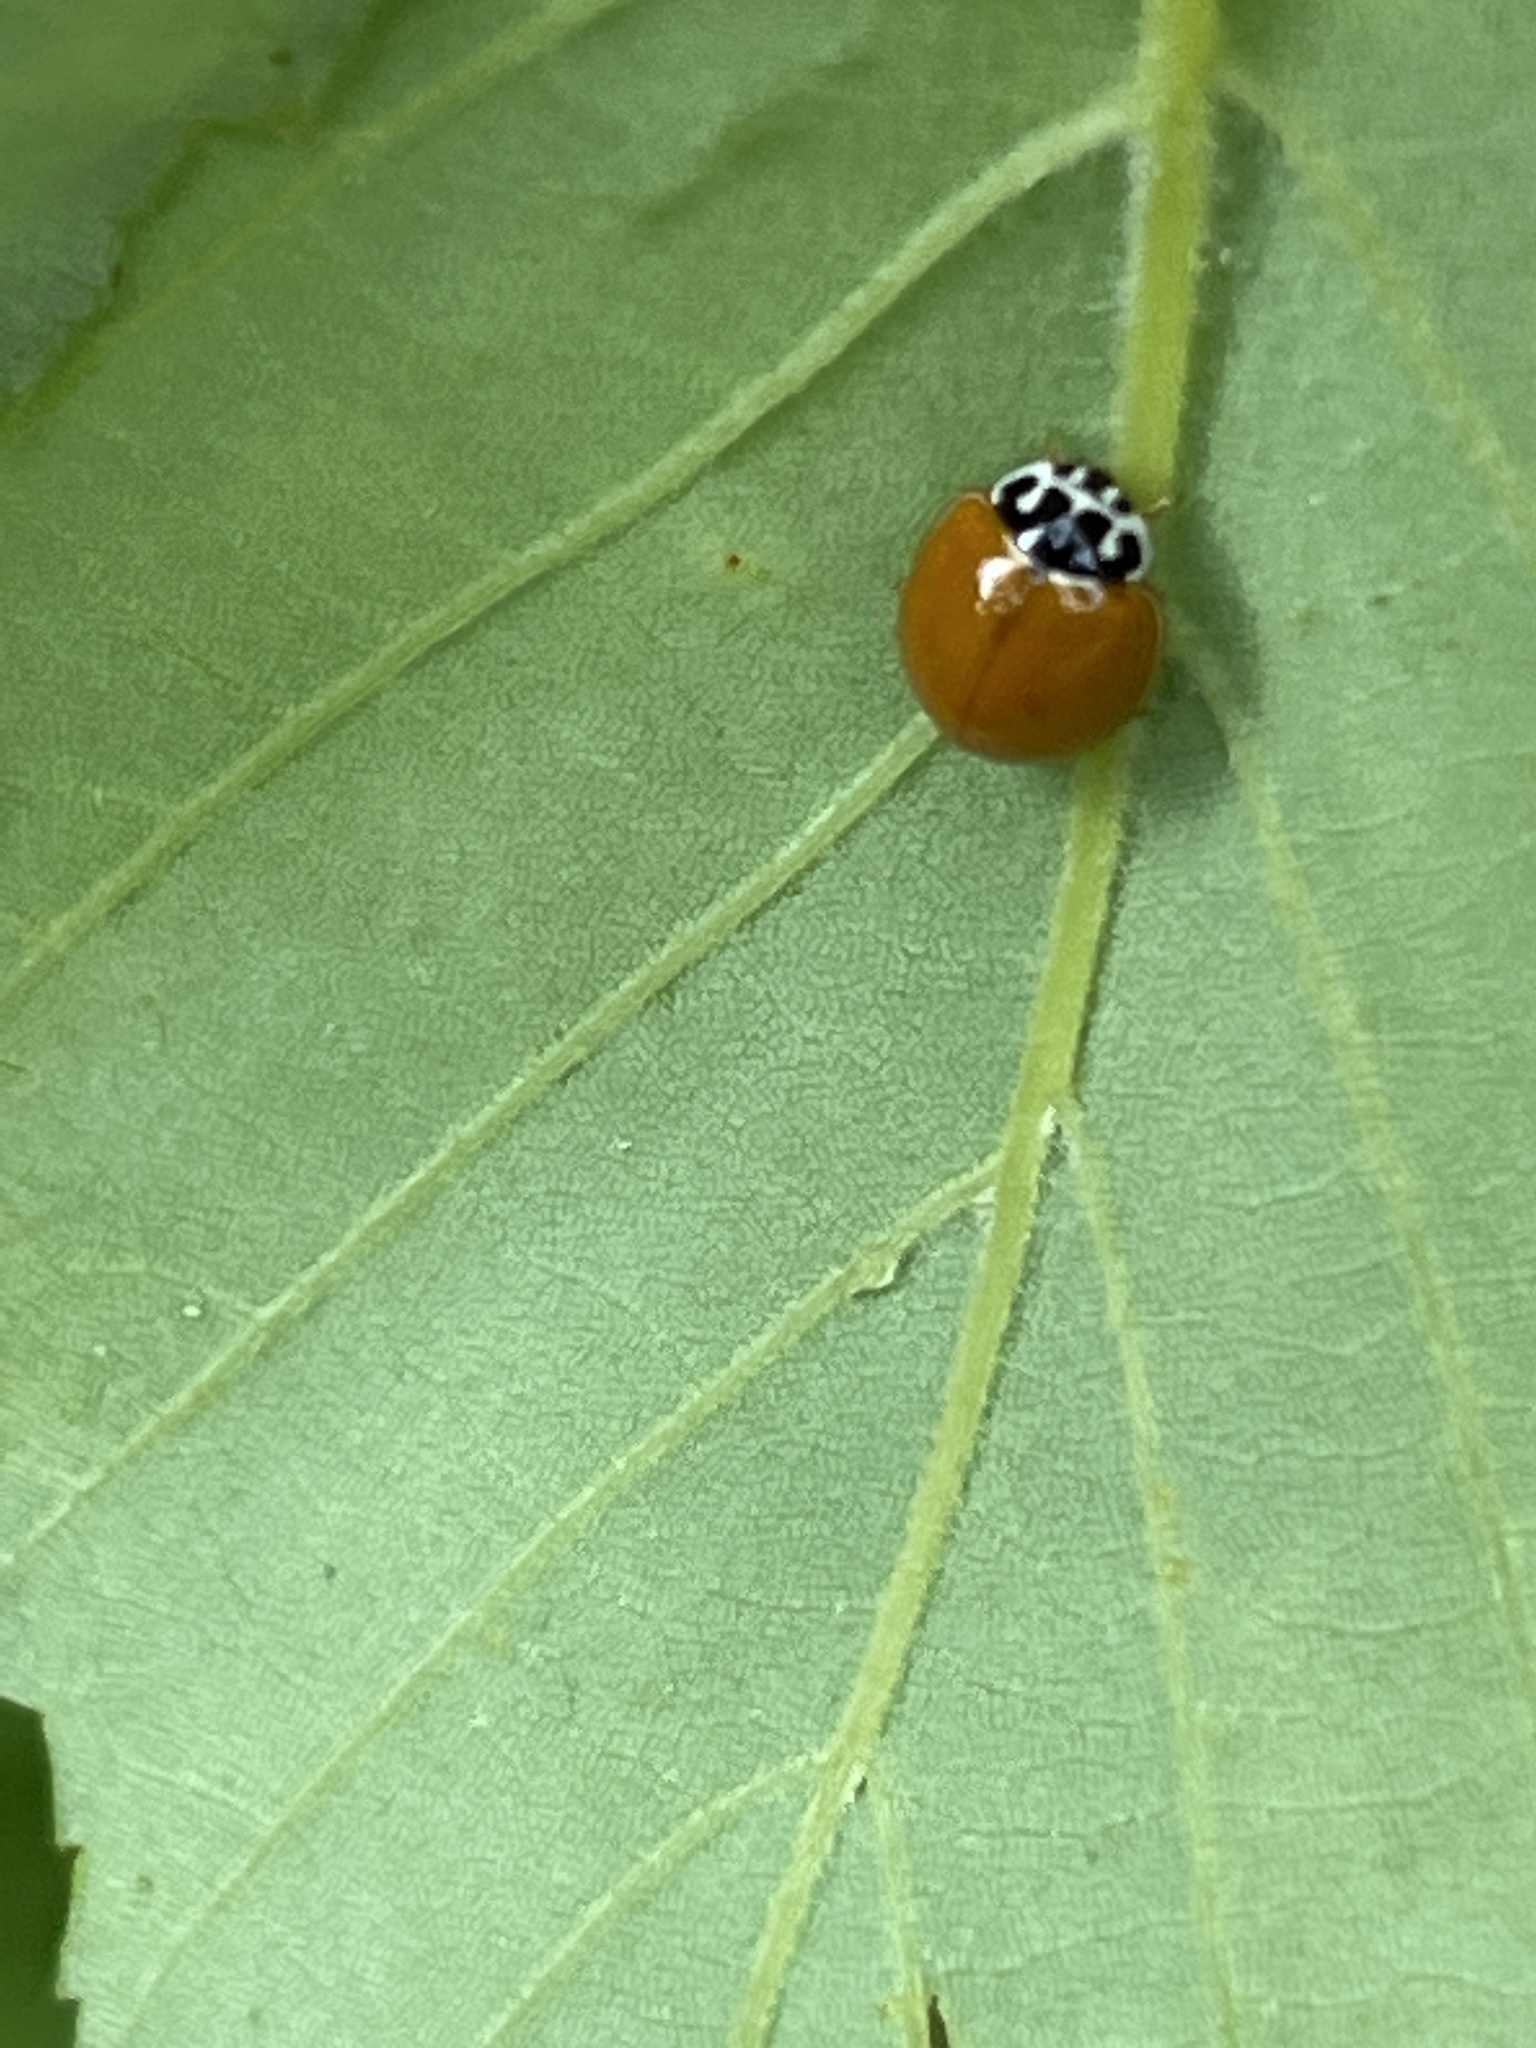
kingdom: Animalia
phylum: Arthropoda
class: Insecta
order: Coleoptera
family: Coccinellidae
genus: Cycloneda
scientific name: Cycloneda munda
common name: Polished lady beetle
